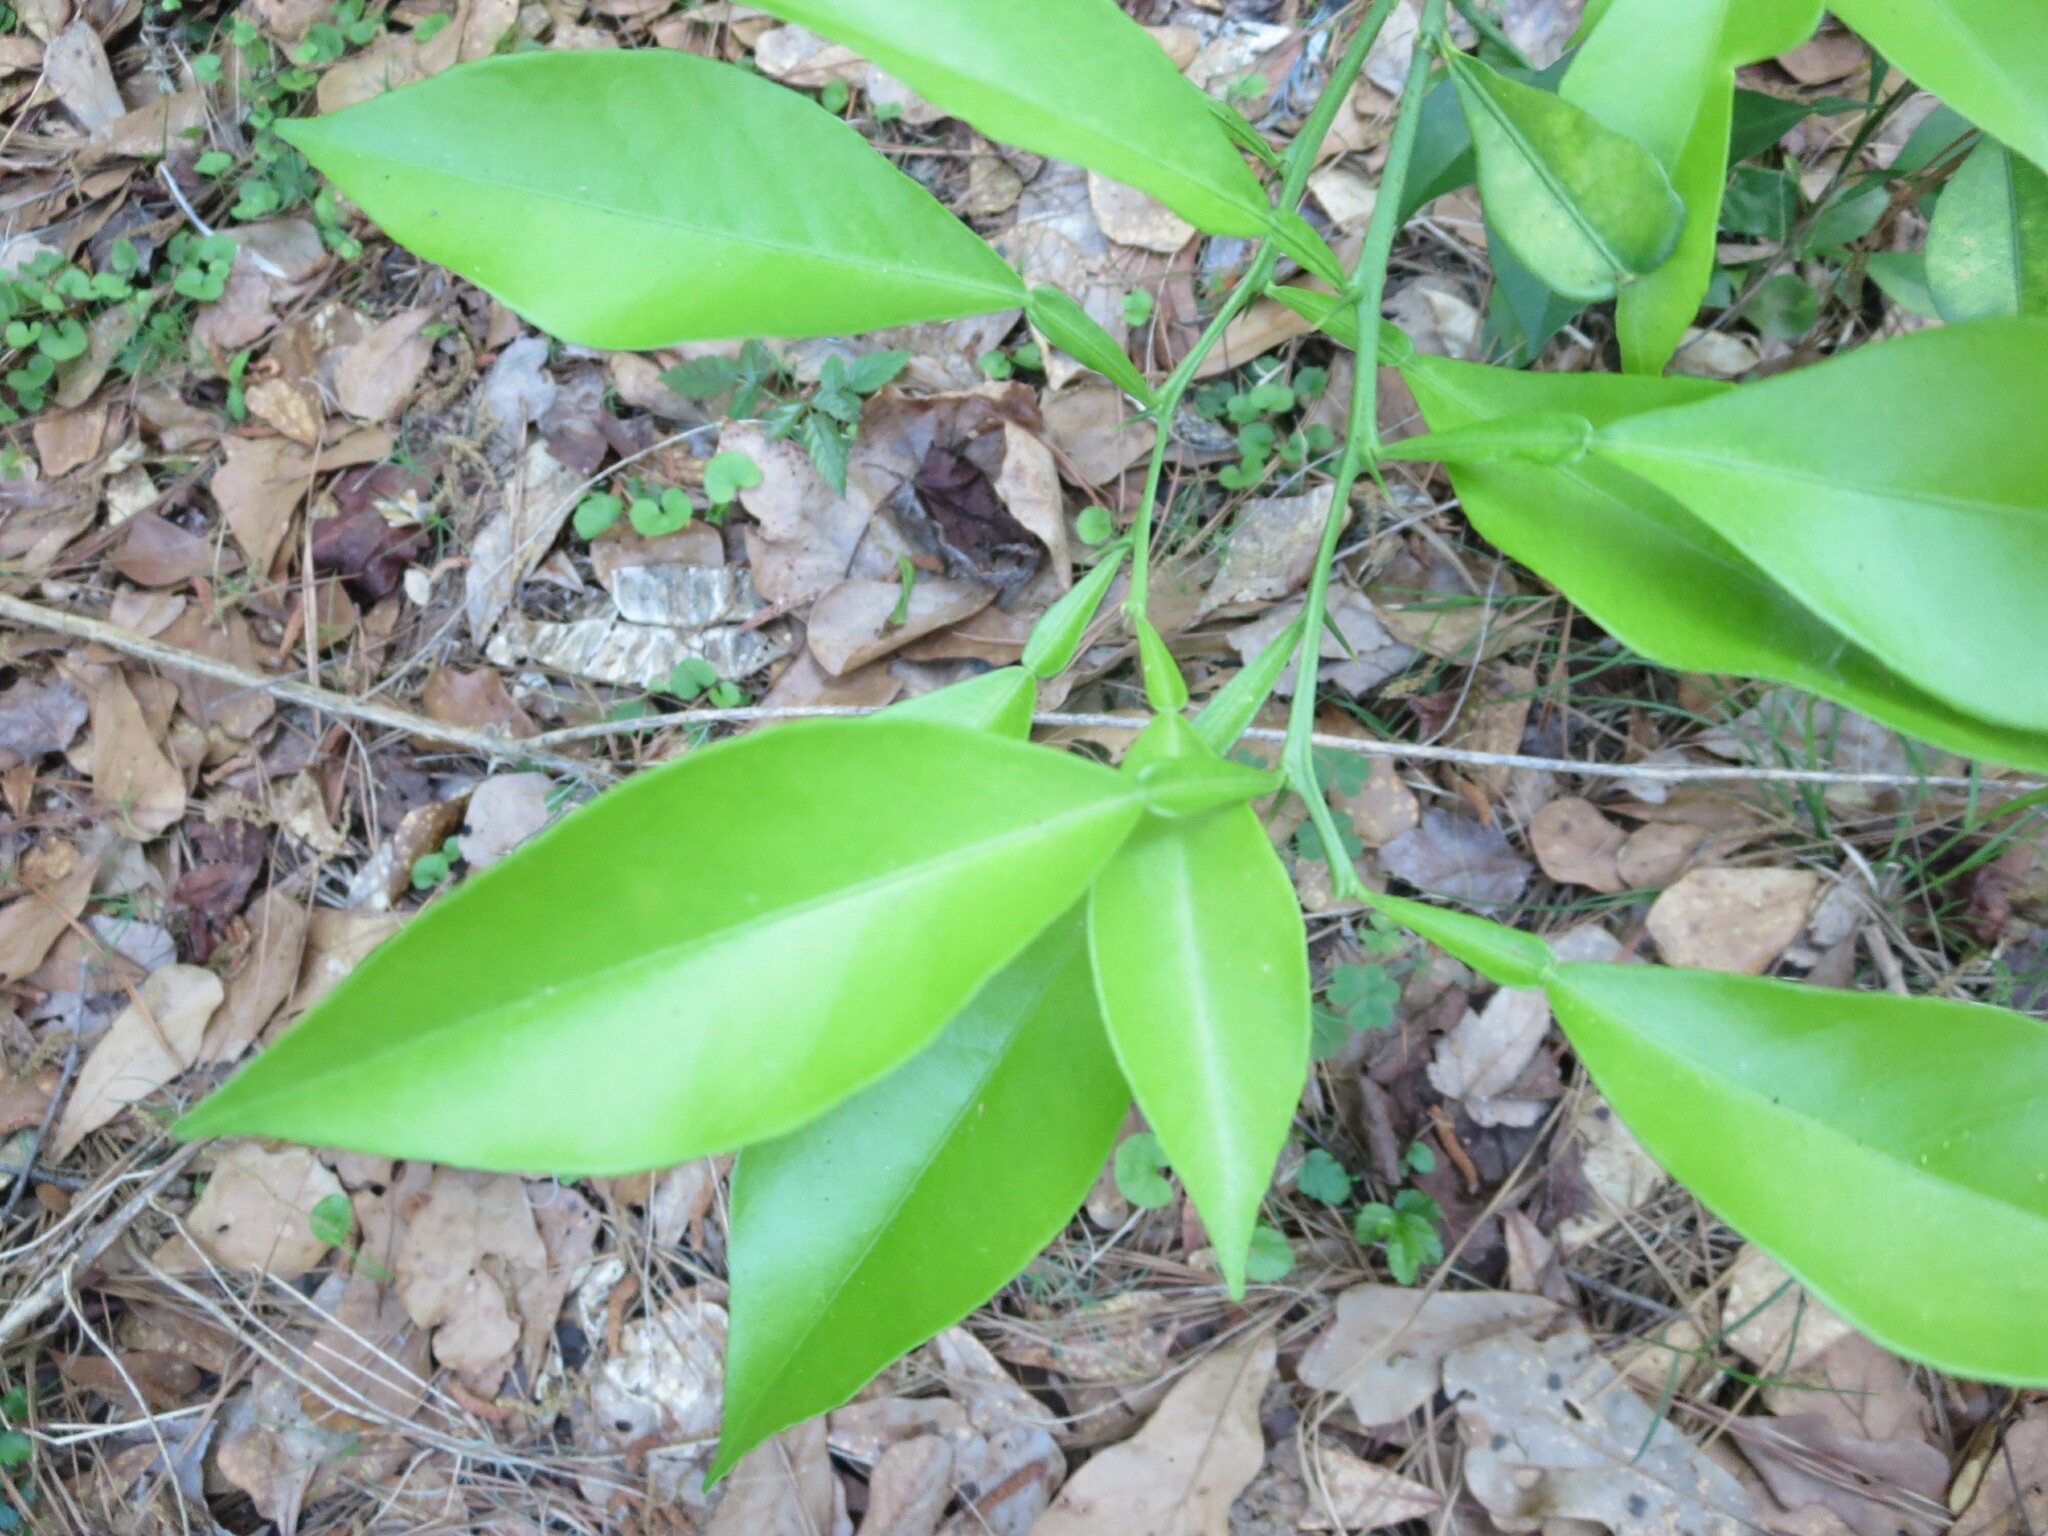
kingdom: Plantae
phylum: Tracheophyta
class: Magnoliopsida
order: Sapindales
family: Rutaceae
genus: Citrus
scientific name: Citrus aurantium
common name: Sour orange
